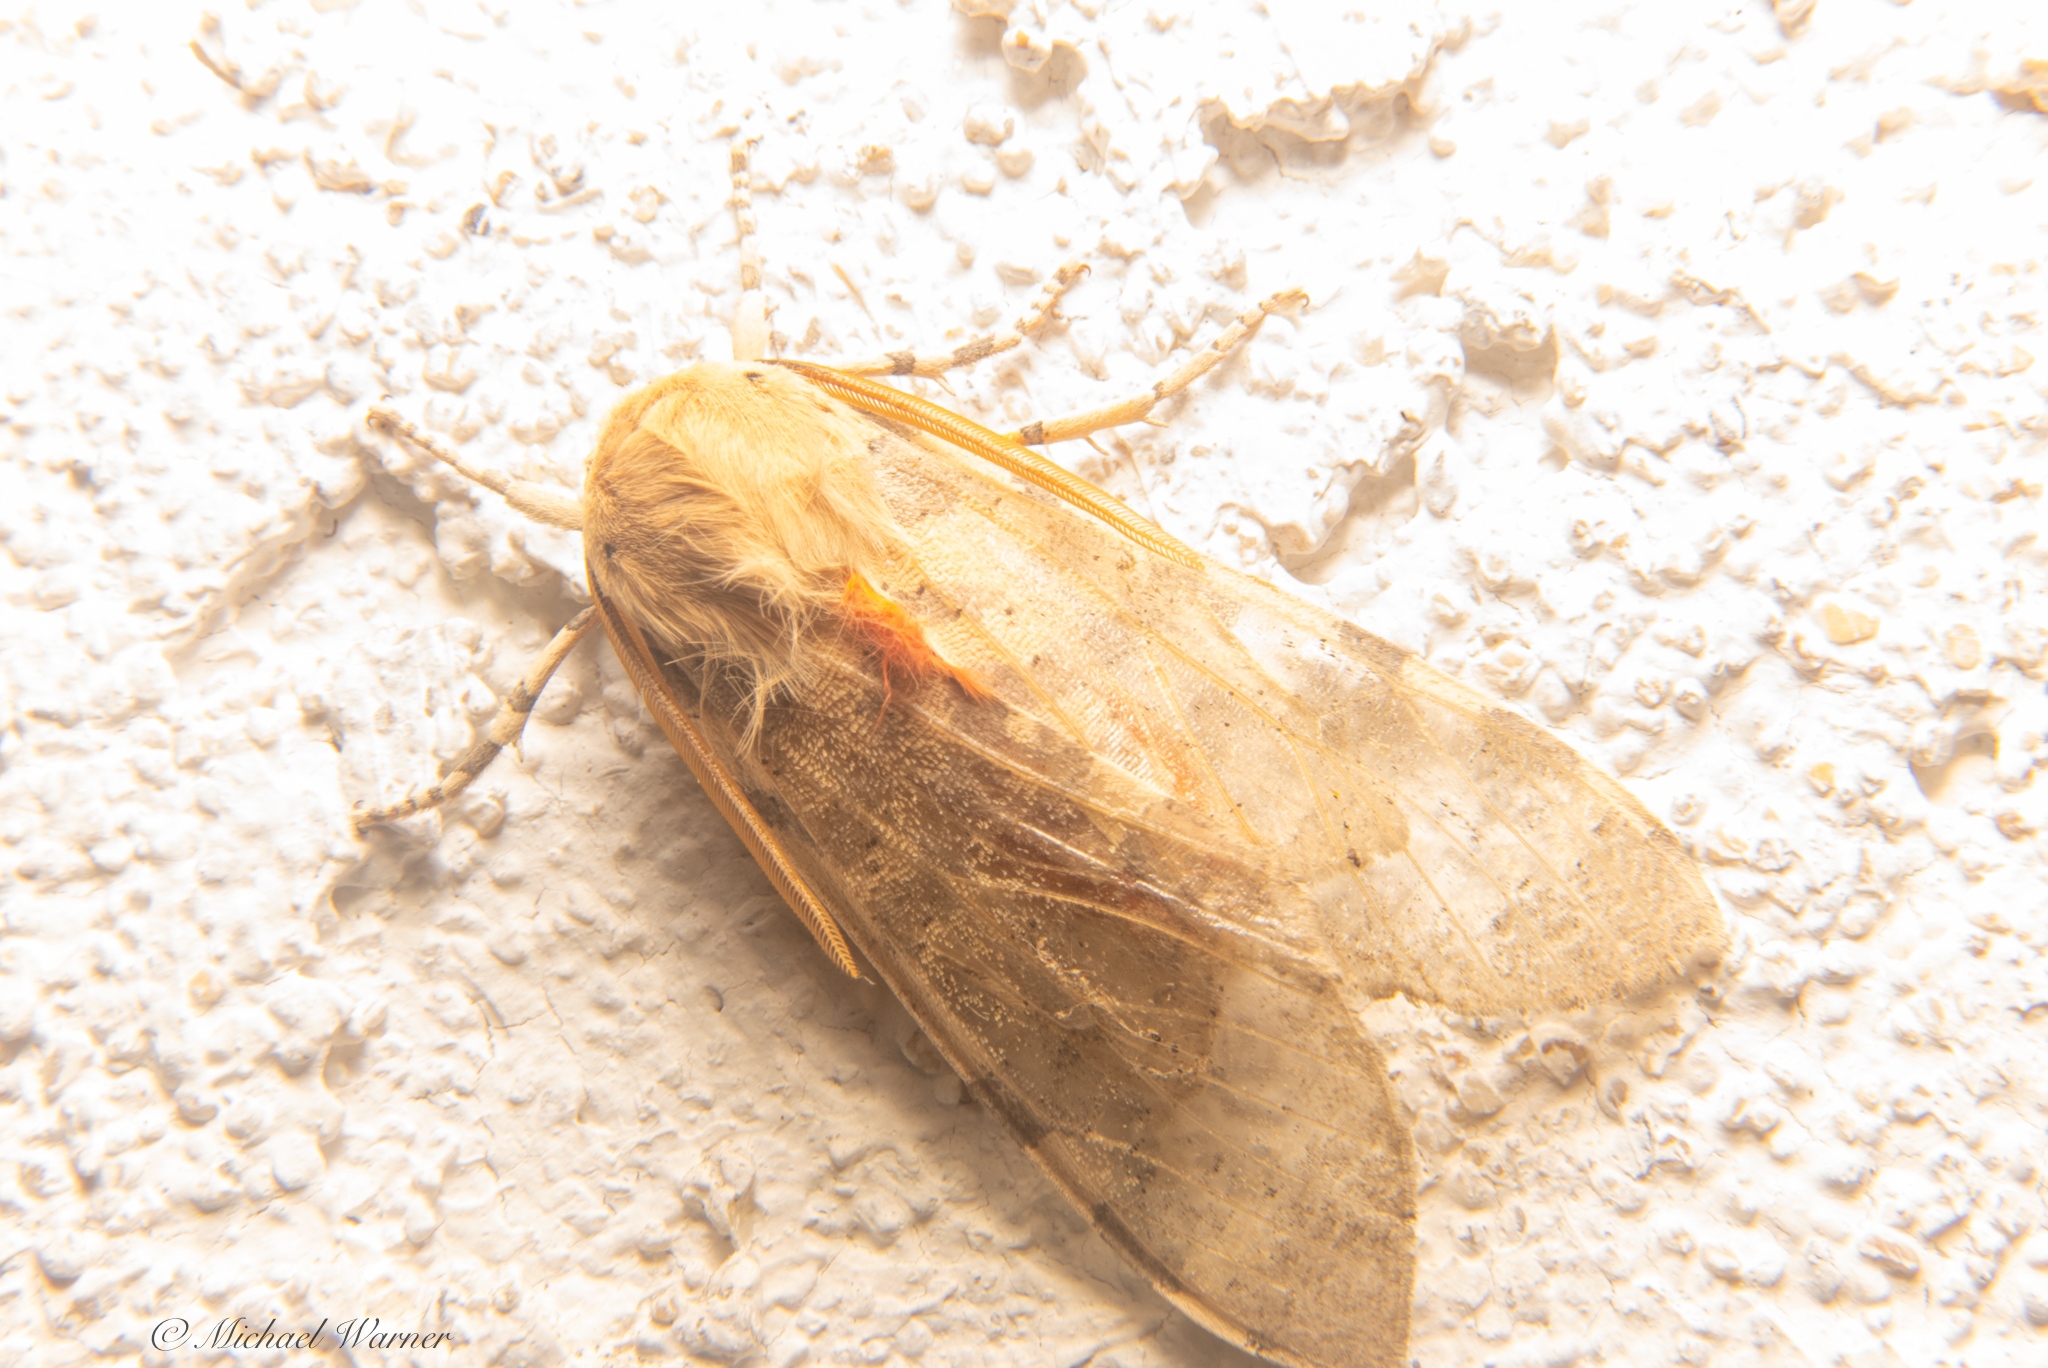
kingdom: Animalia
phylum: Arthropoda
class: Insecta
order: Lepidoptera
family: Erebidae
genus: Hemihyalea
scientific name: Hemihyalea edwardsii
